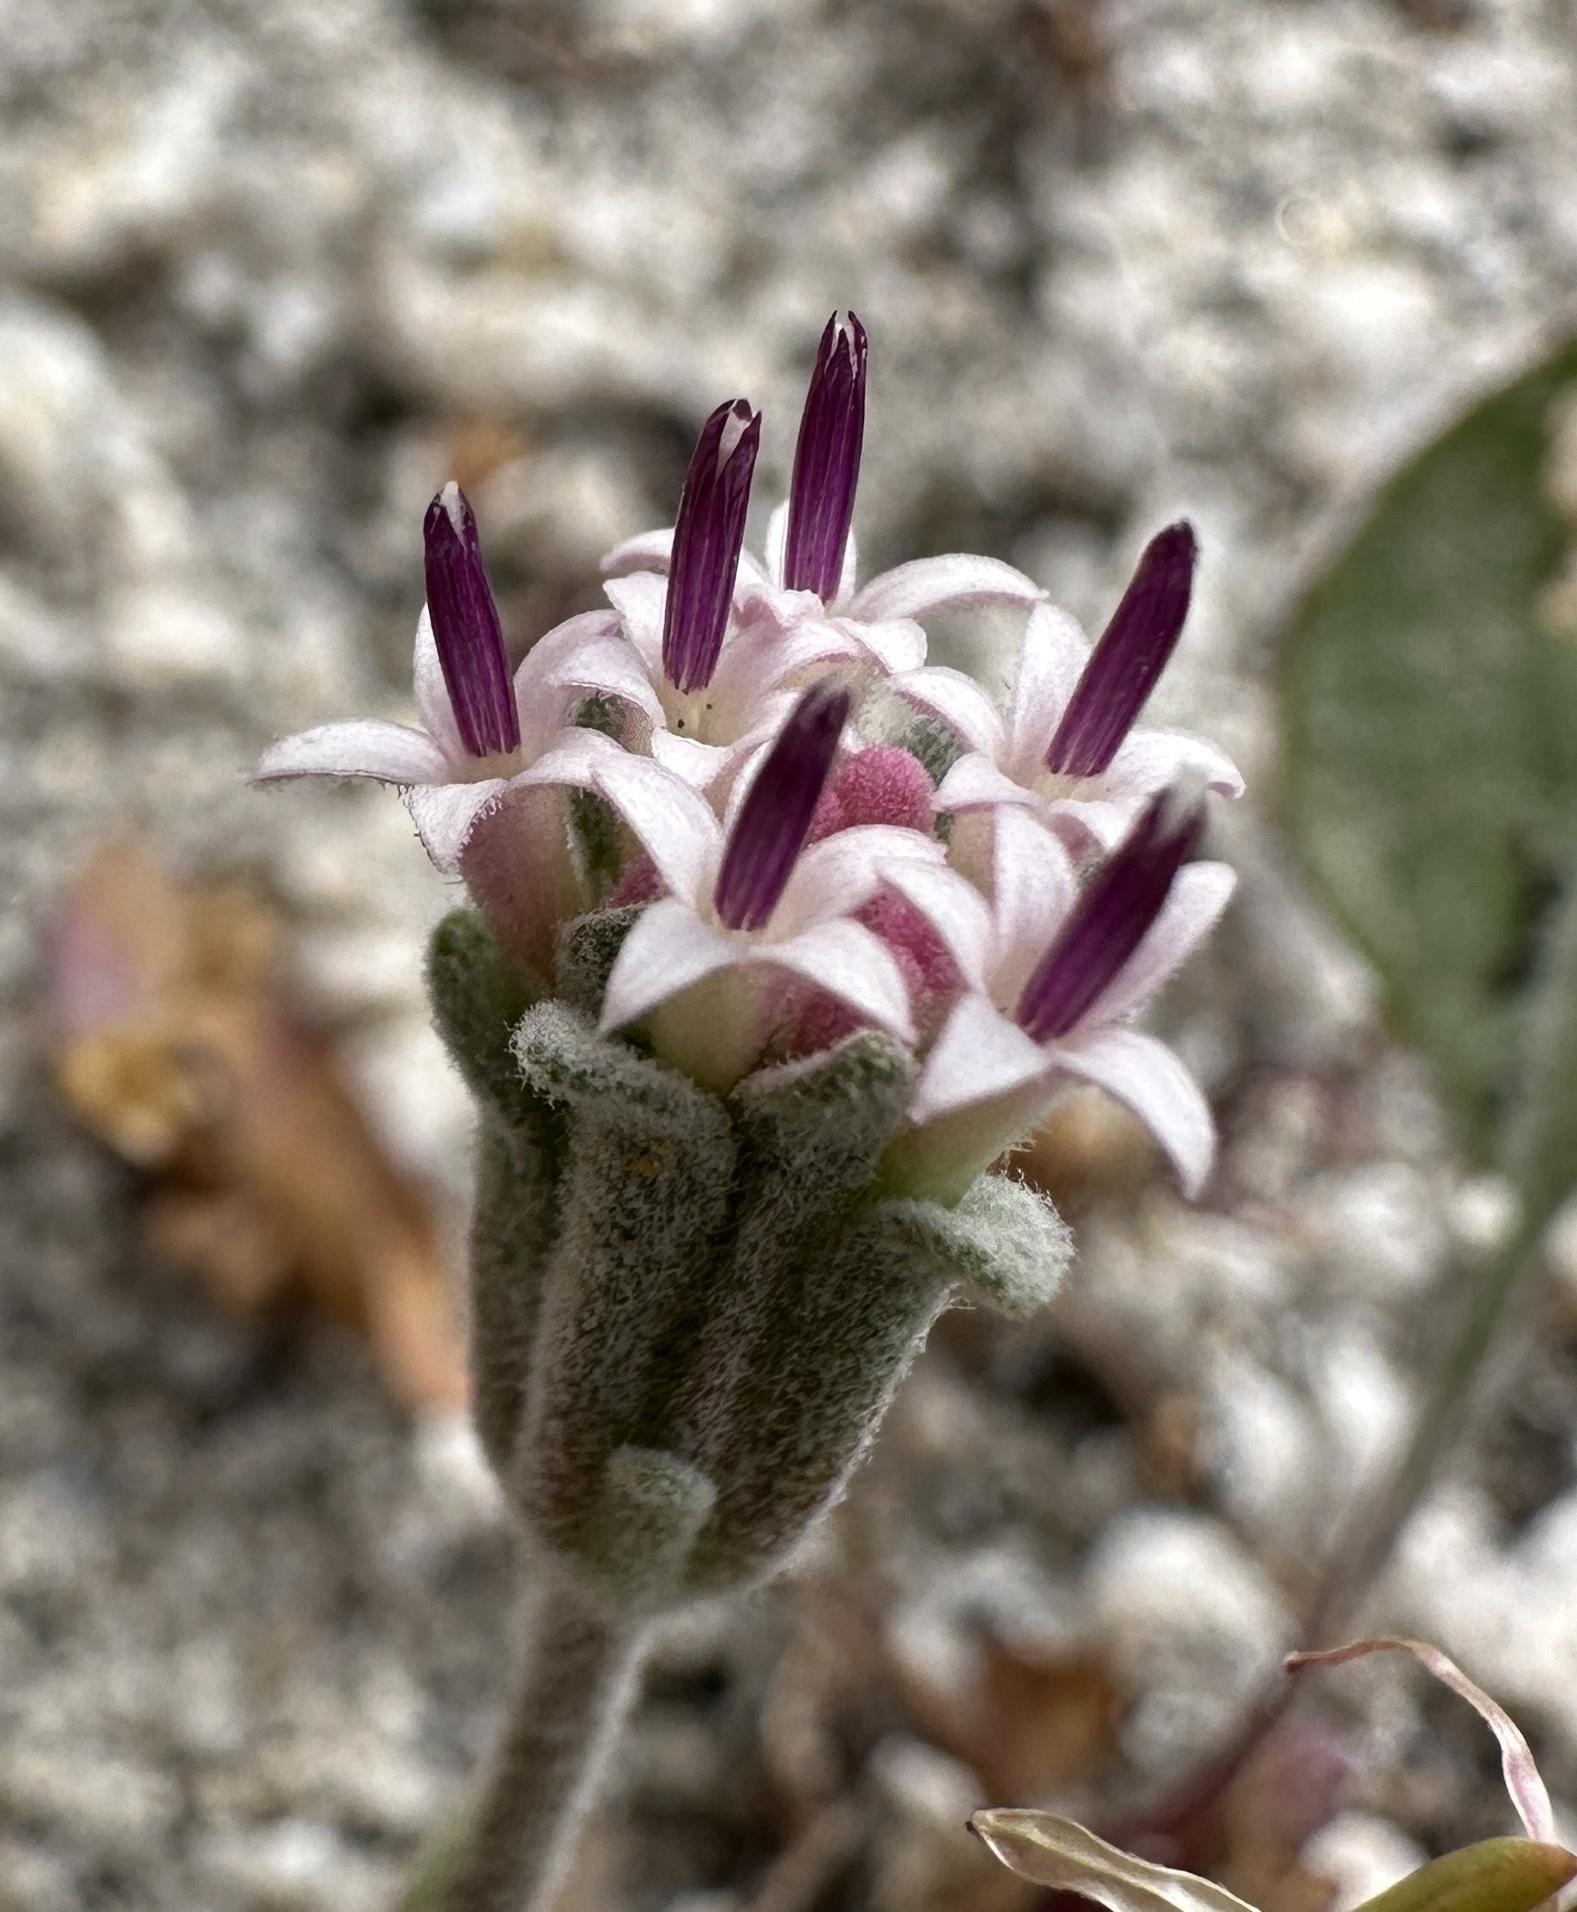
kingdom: Plantae
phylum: Tracheophyta
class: Magnoliopsida
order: Asterales
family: Asteraceae
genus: Chaenactis
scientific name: Chaenactis evermannii
